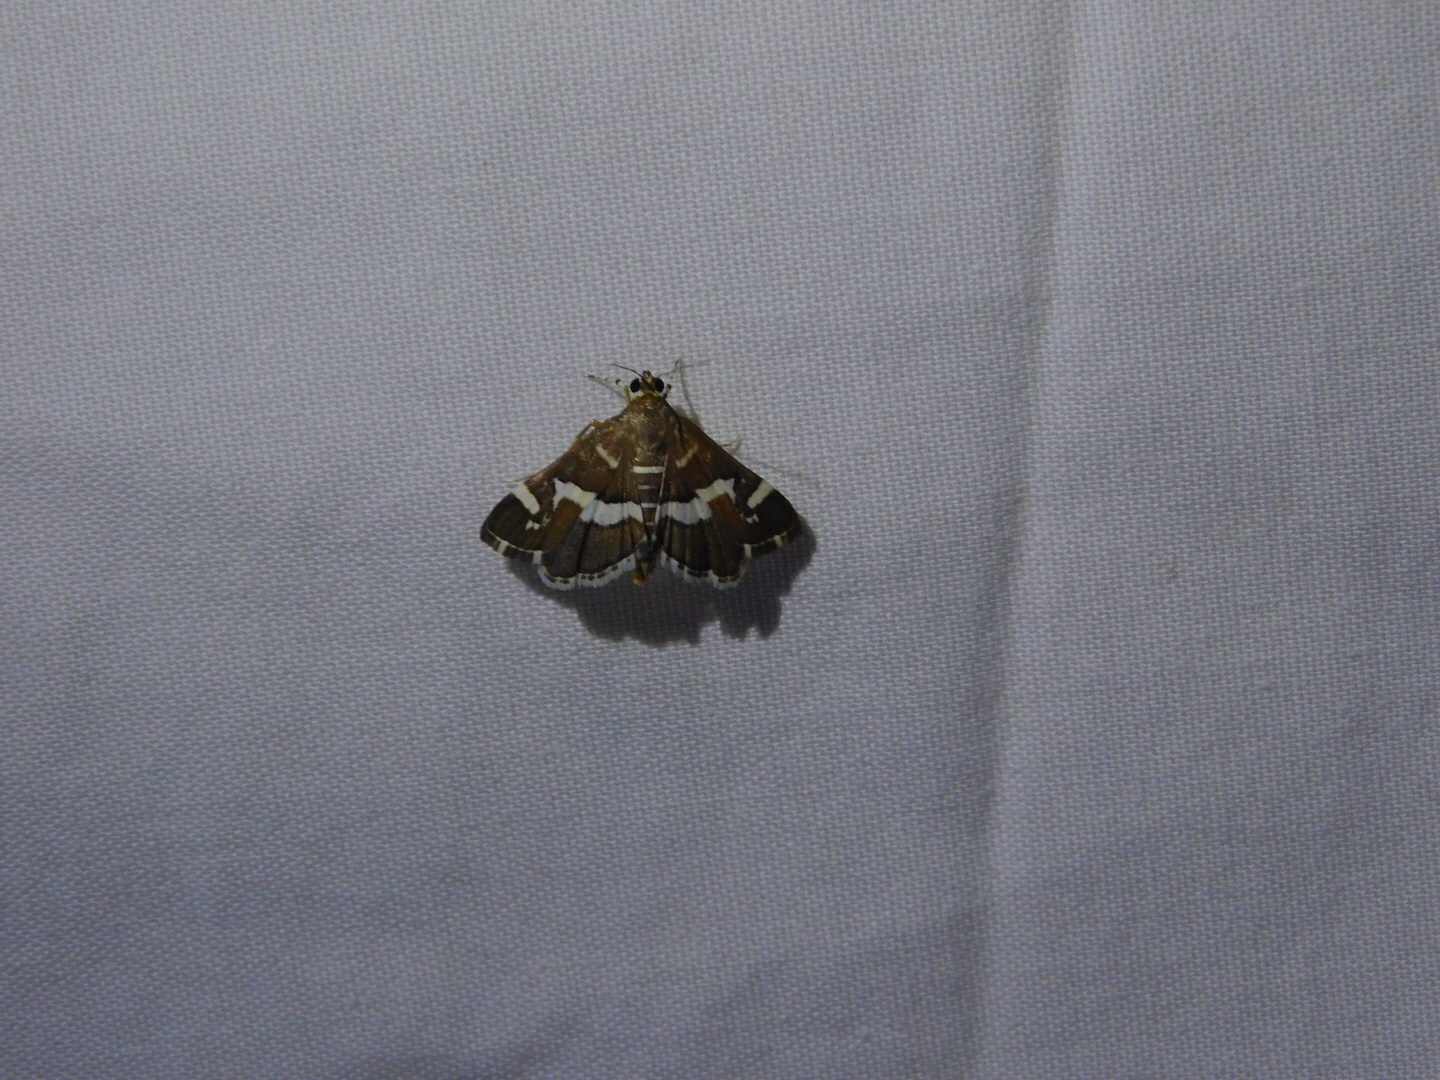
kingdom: Animalia
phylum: Arthropoda
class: Insecta
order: Lepidoptera
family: Crambidae
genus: Spoladea
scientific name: Spoladea recurvalis
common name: Beet webworm moth
